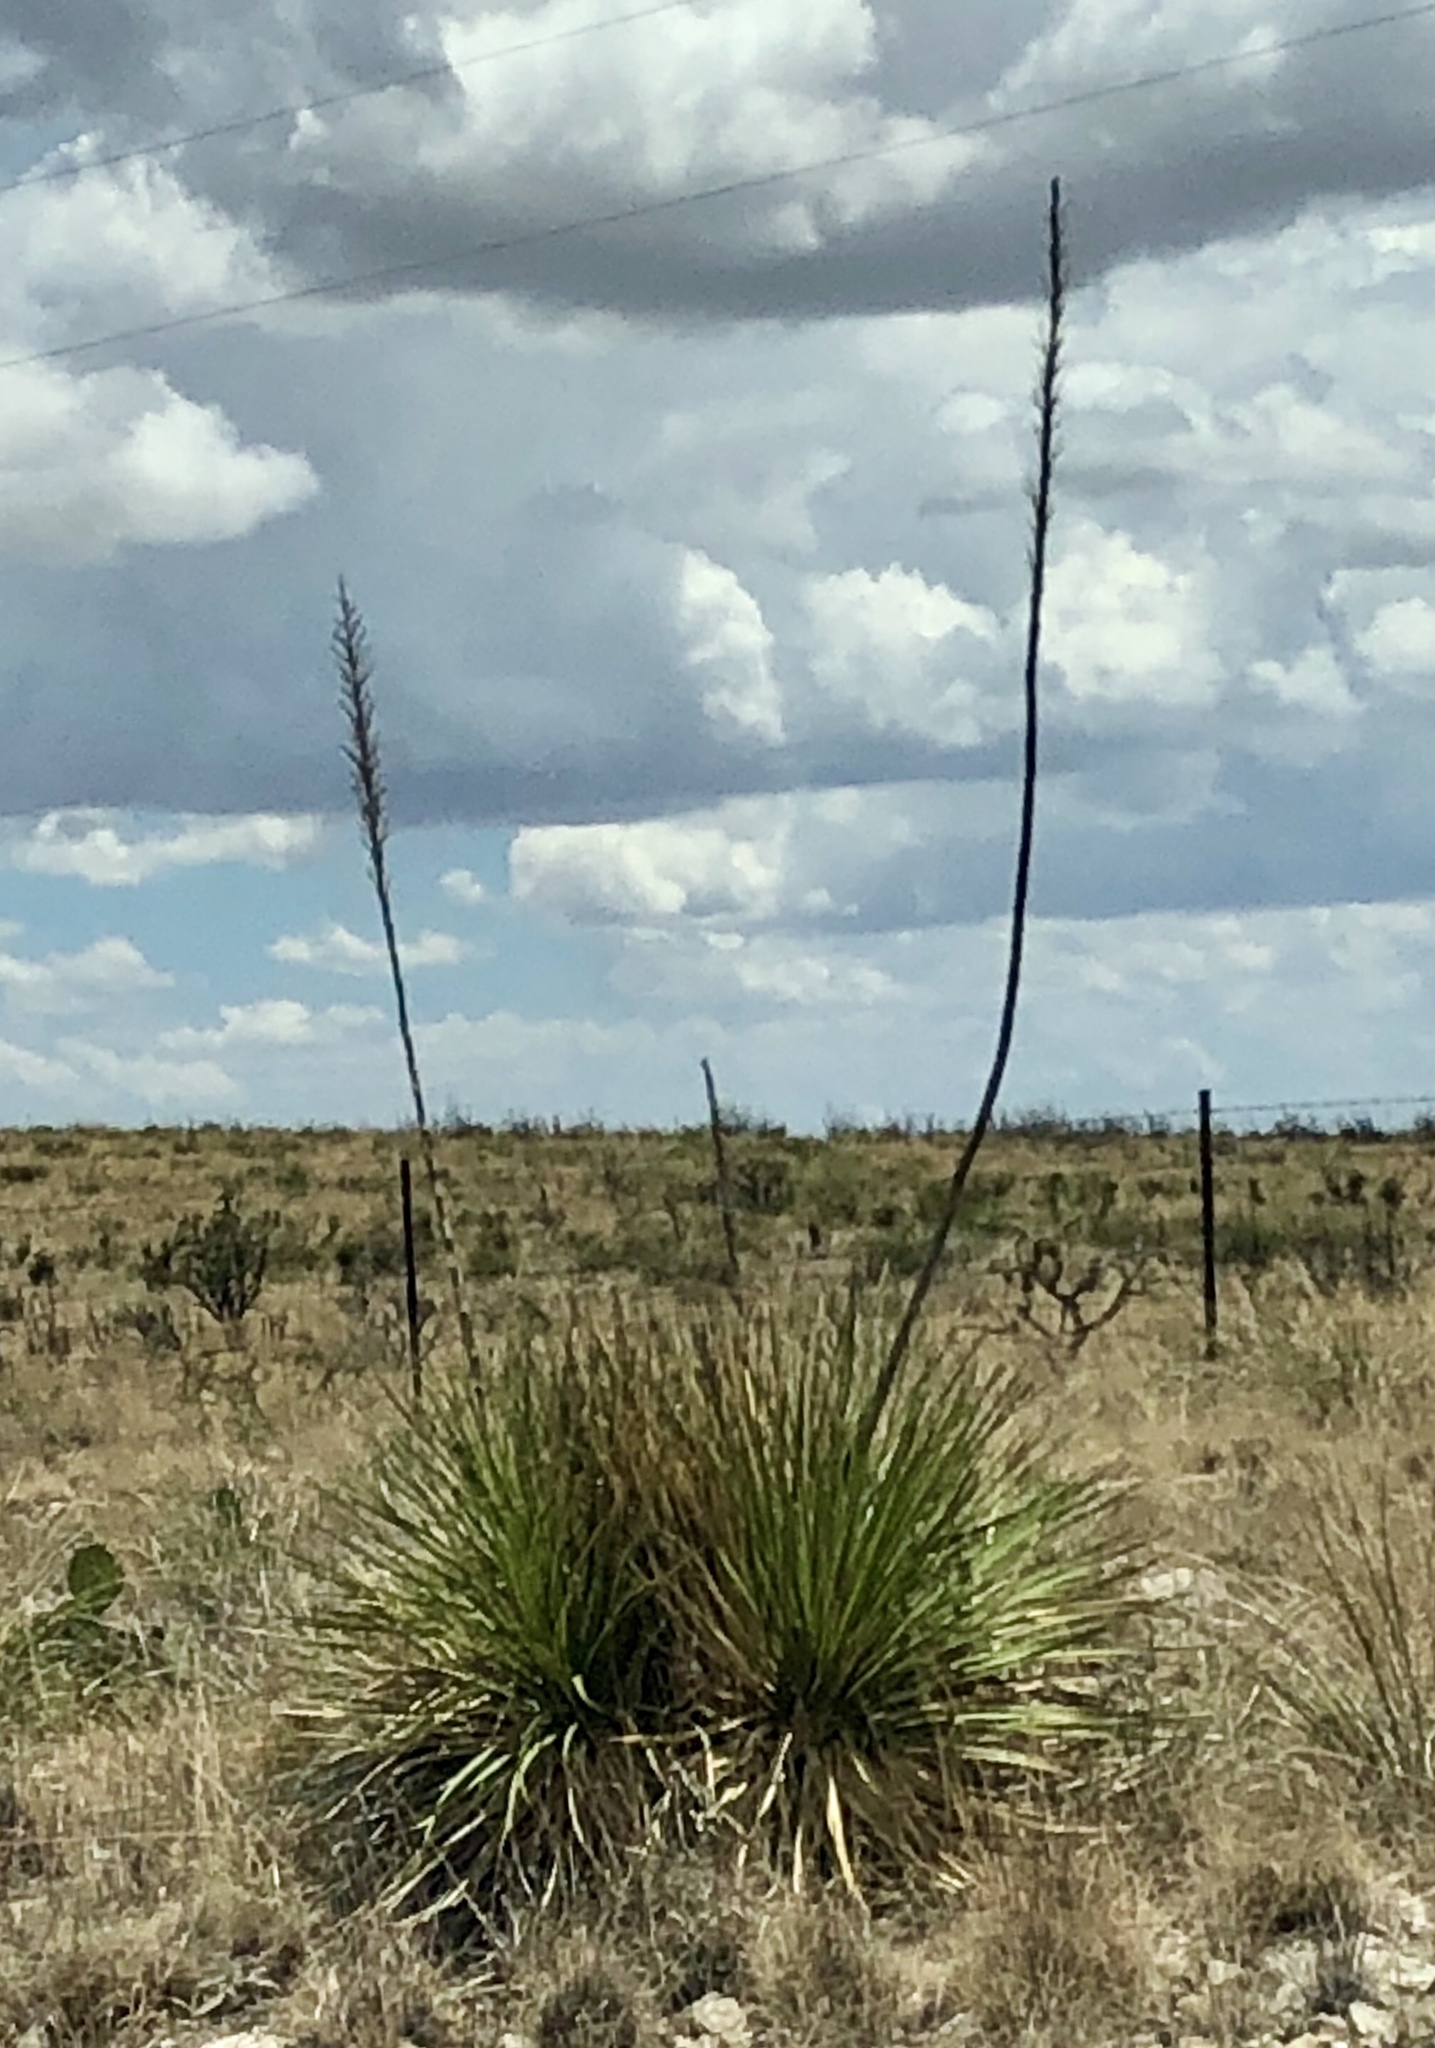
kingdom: Plantae
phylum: Tracheophyta
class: Liliopsida
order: Asparagales
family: Asparagaceae
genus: Dasylirion
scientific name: Dasylirion wheeleri
